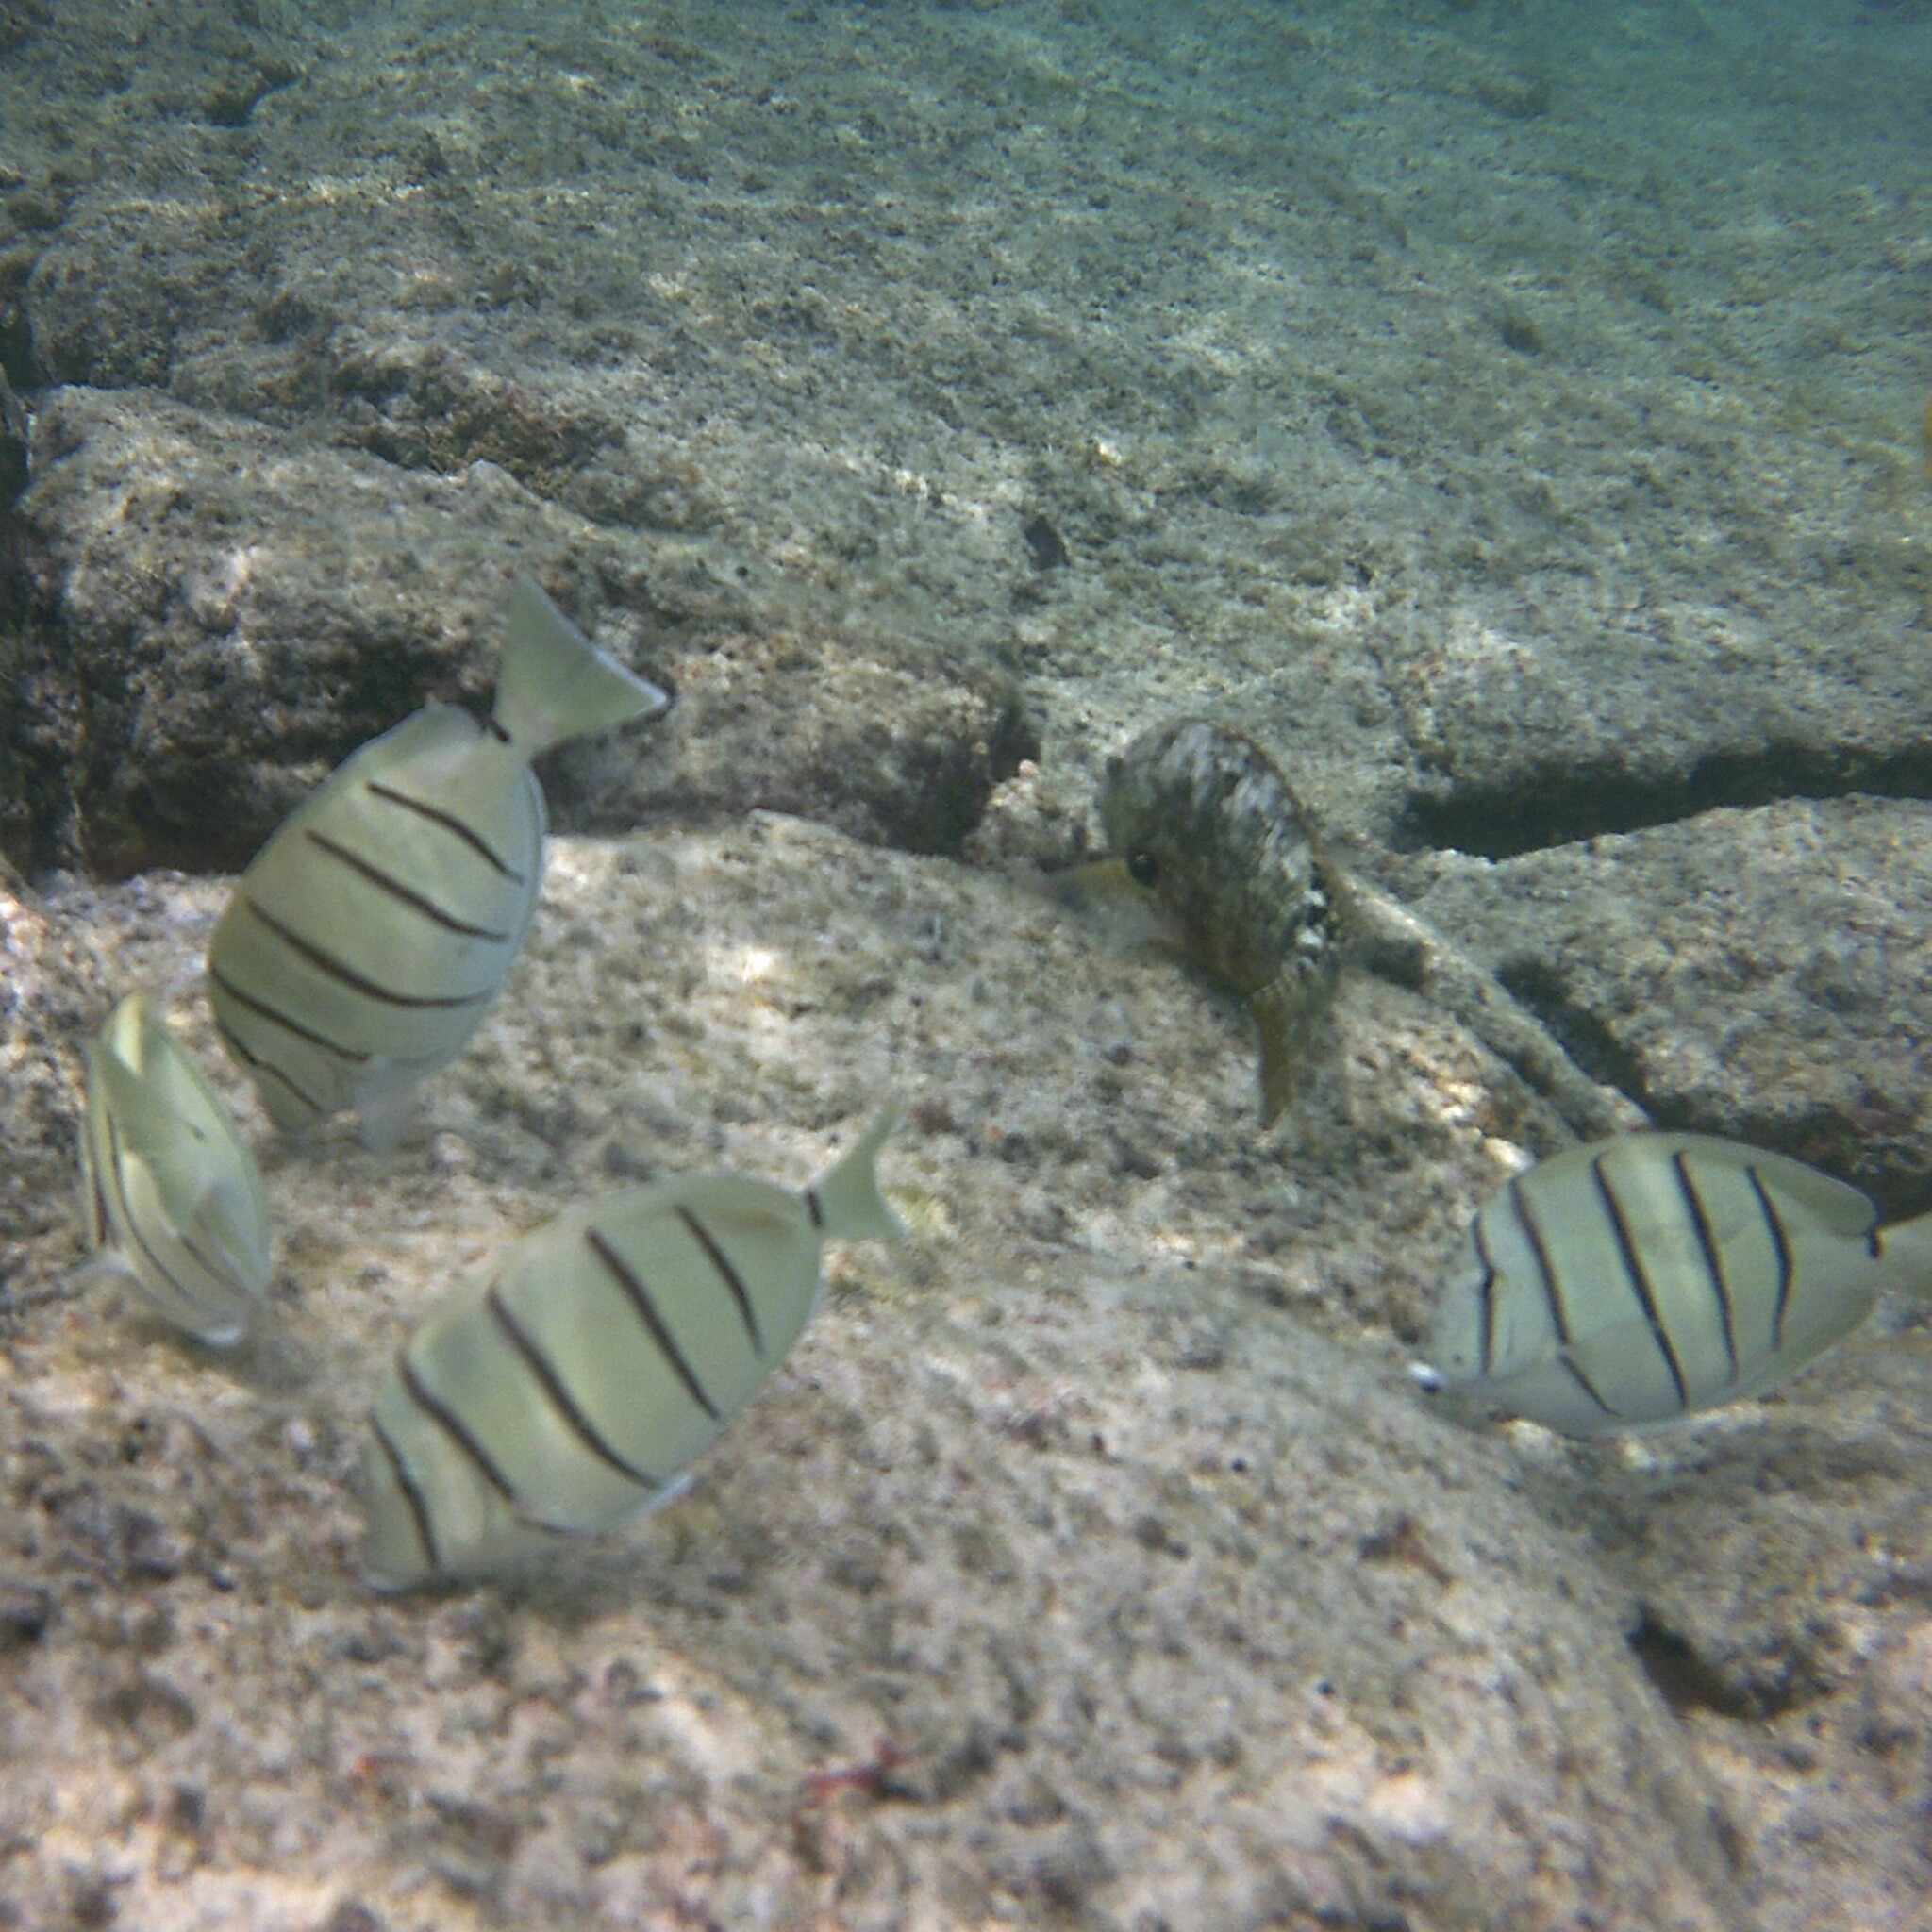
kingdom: Animalia
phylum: Chordata
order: Perciformes
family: Acanthuridae
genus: Acanthurus
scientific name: Acanthurus triostegus
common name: Convict surgeonfish
